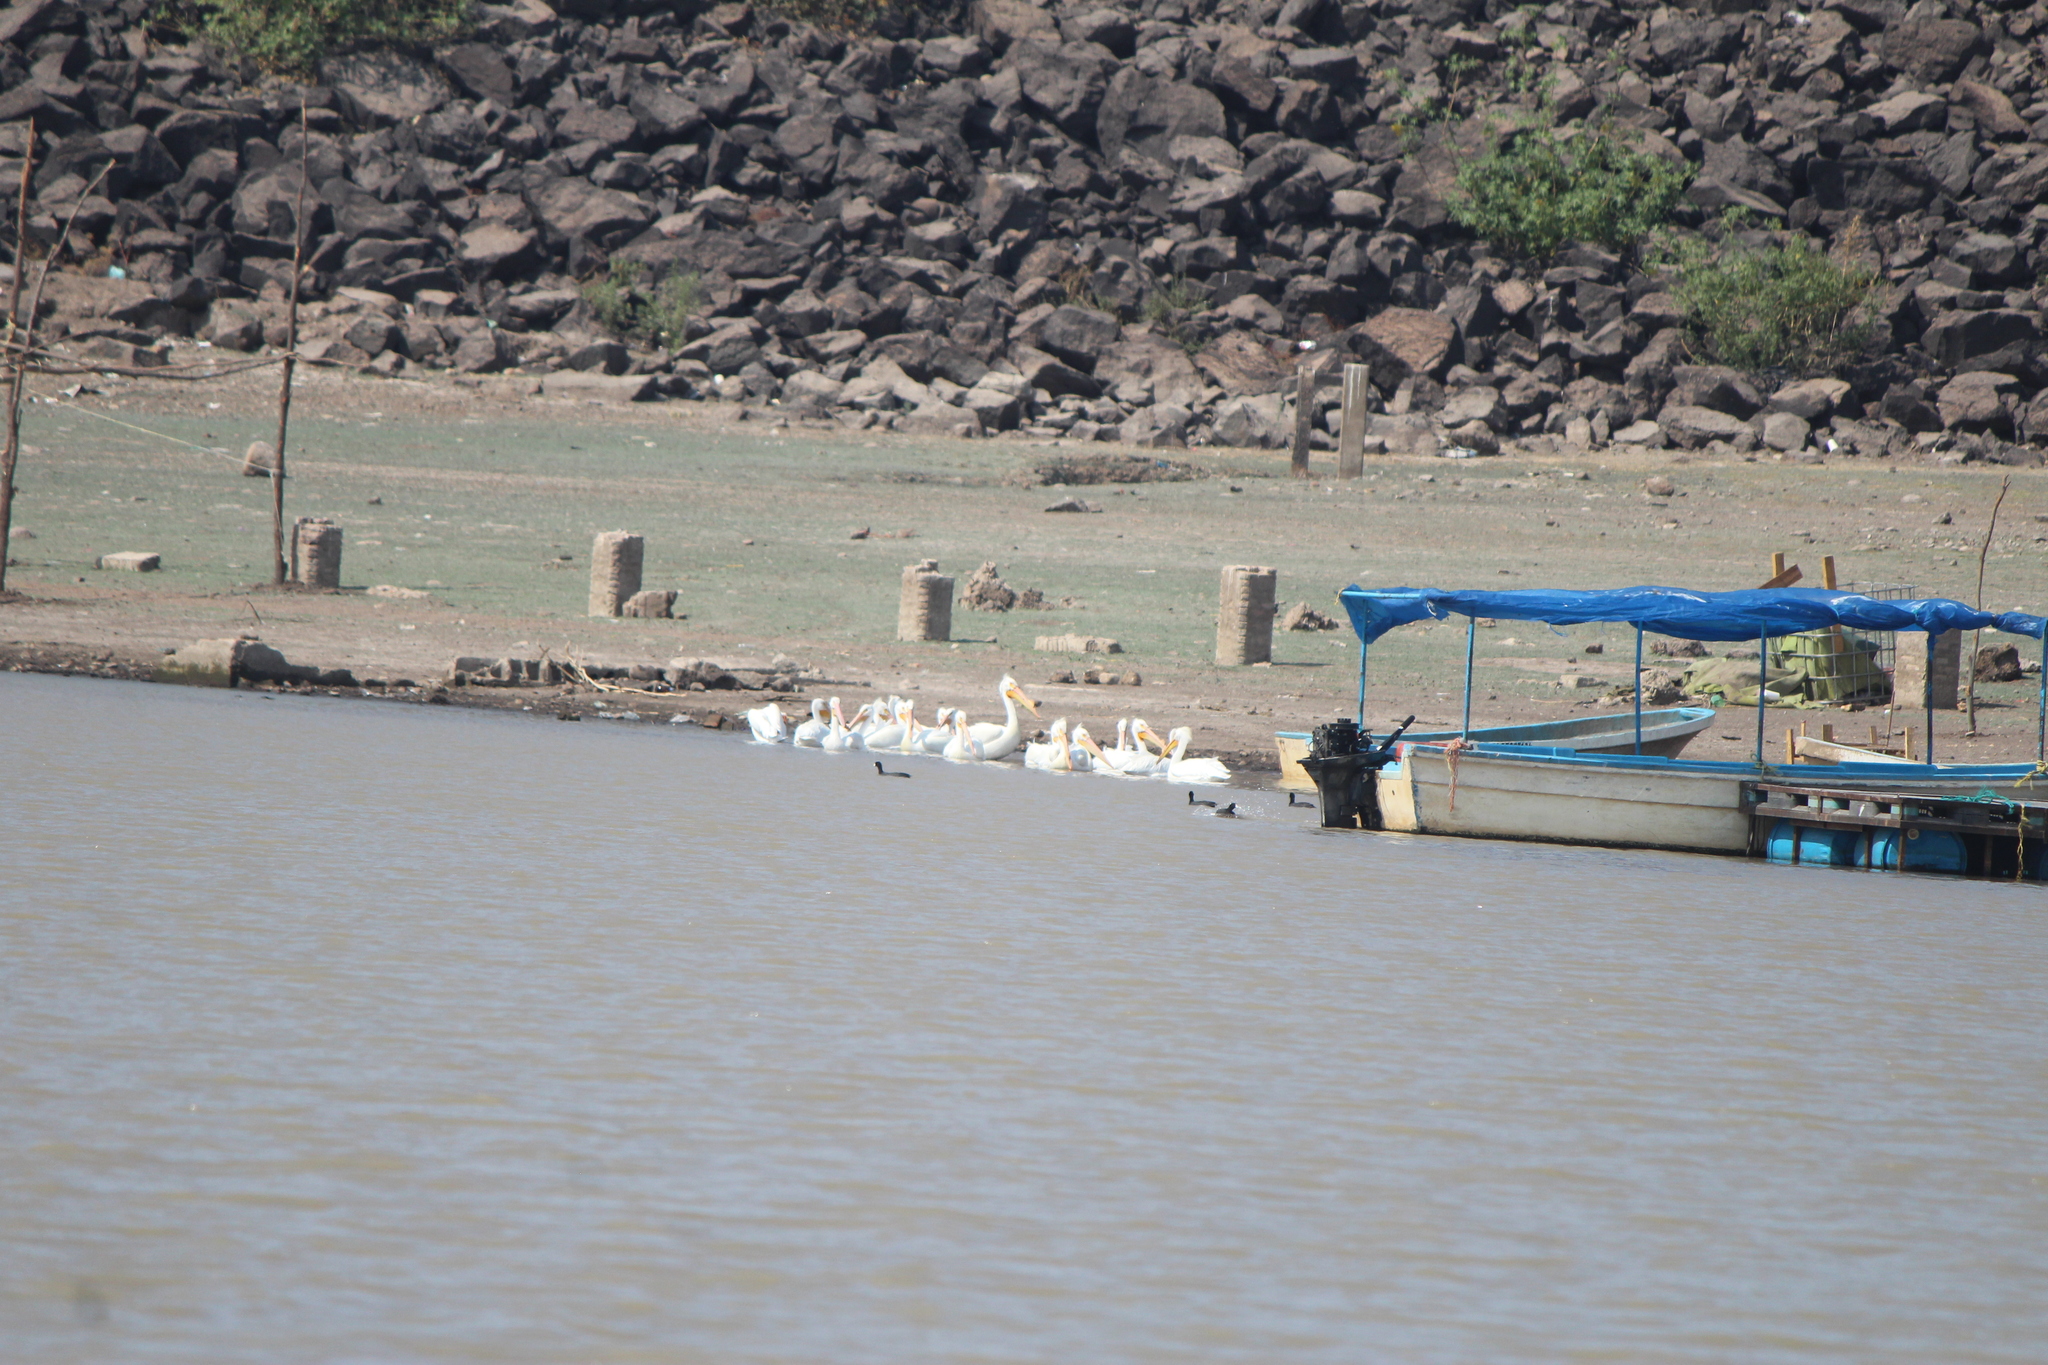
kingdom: Animalia
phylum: Chordata
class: Aves
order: Pelecaniformes
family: Pelecanidae
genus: Pelecanus
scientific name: Pelecanus erythrorhynchos
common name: American white pelican
